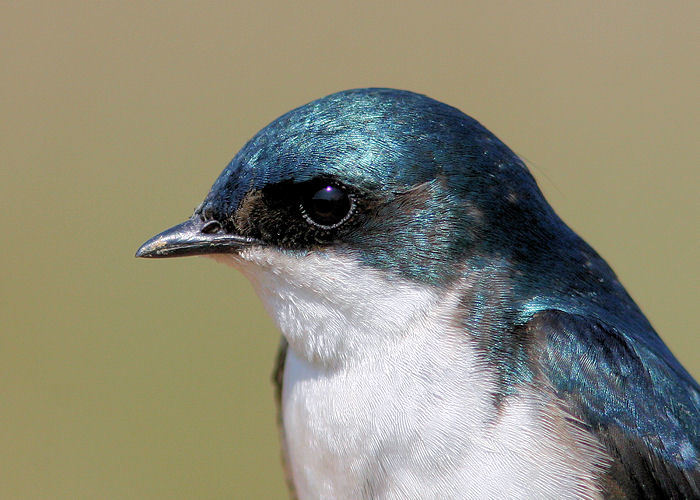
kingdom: Animalia
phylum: Chordata
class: Aves
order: Passeriformes
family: Hirundinidae
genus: Tachycineta
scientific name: Tachycineta bicolor
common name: Tree swallow
